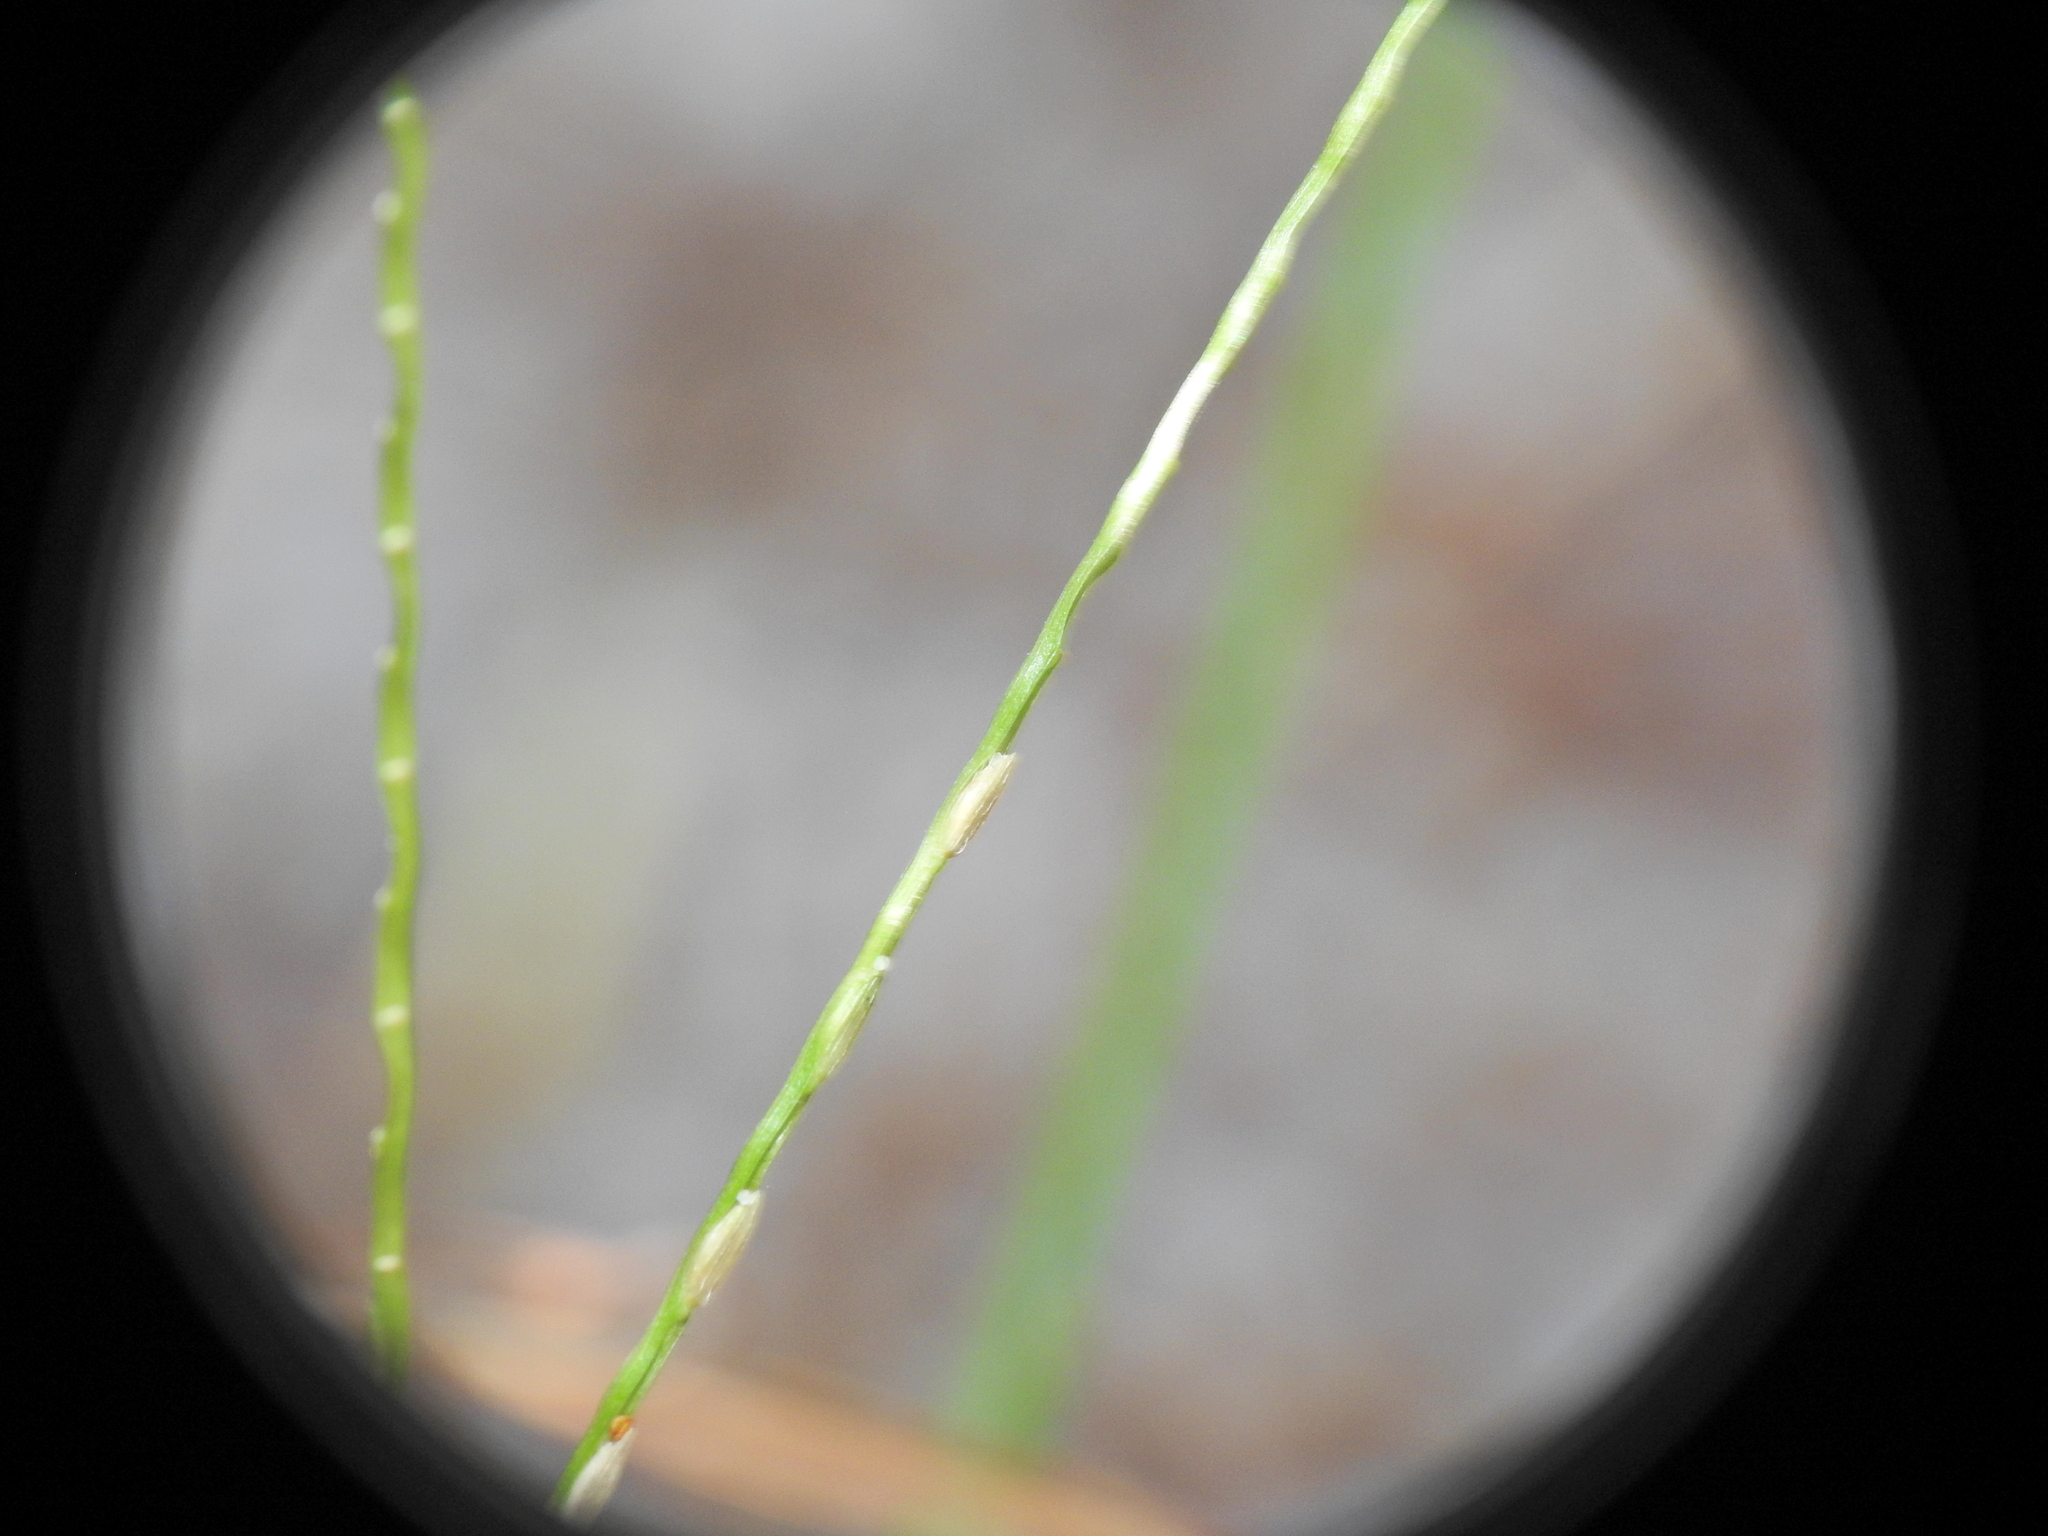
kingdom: Plantae
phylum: Tracheophyta
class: Liliopsida
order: Poales
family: Poaceae
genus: Axonopus
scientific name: Axonopus fissifolius
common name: Common carpetgrass
